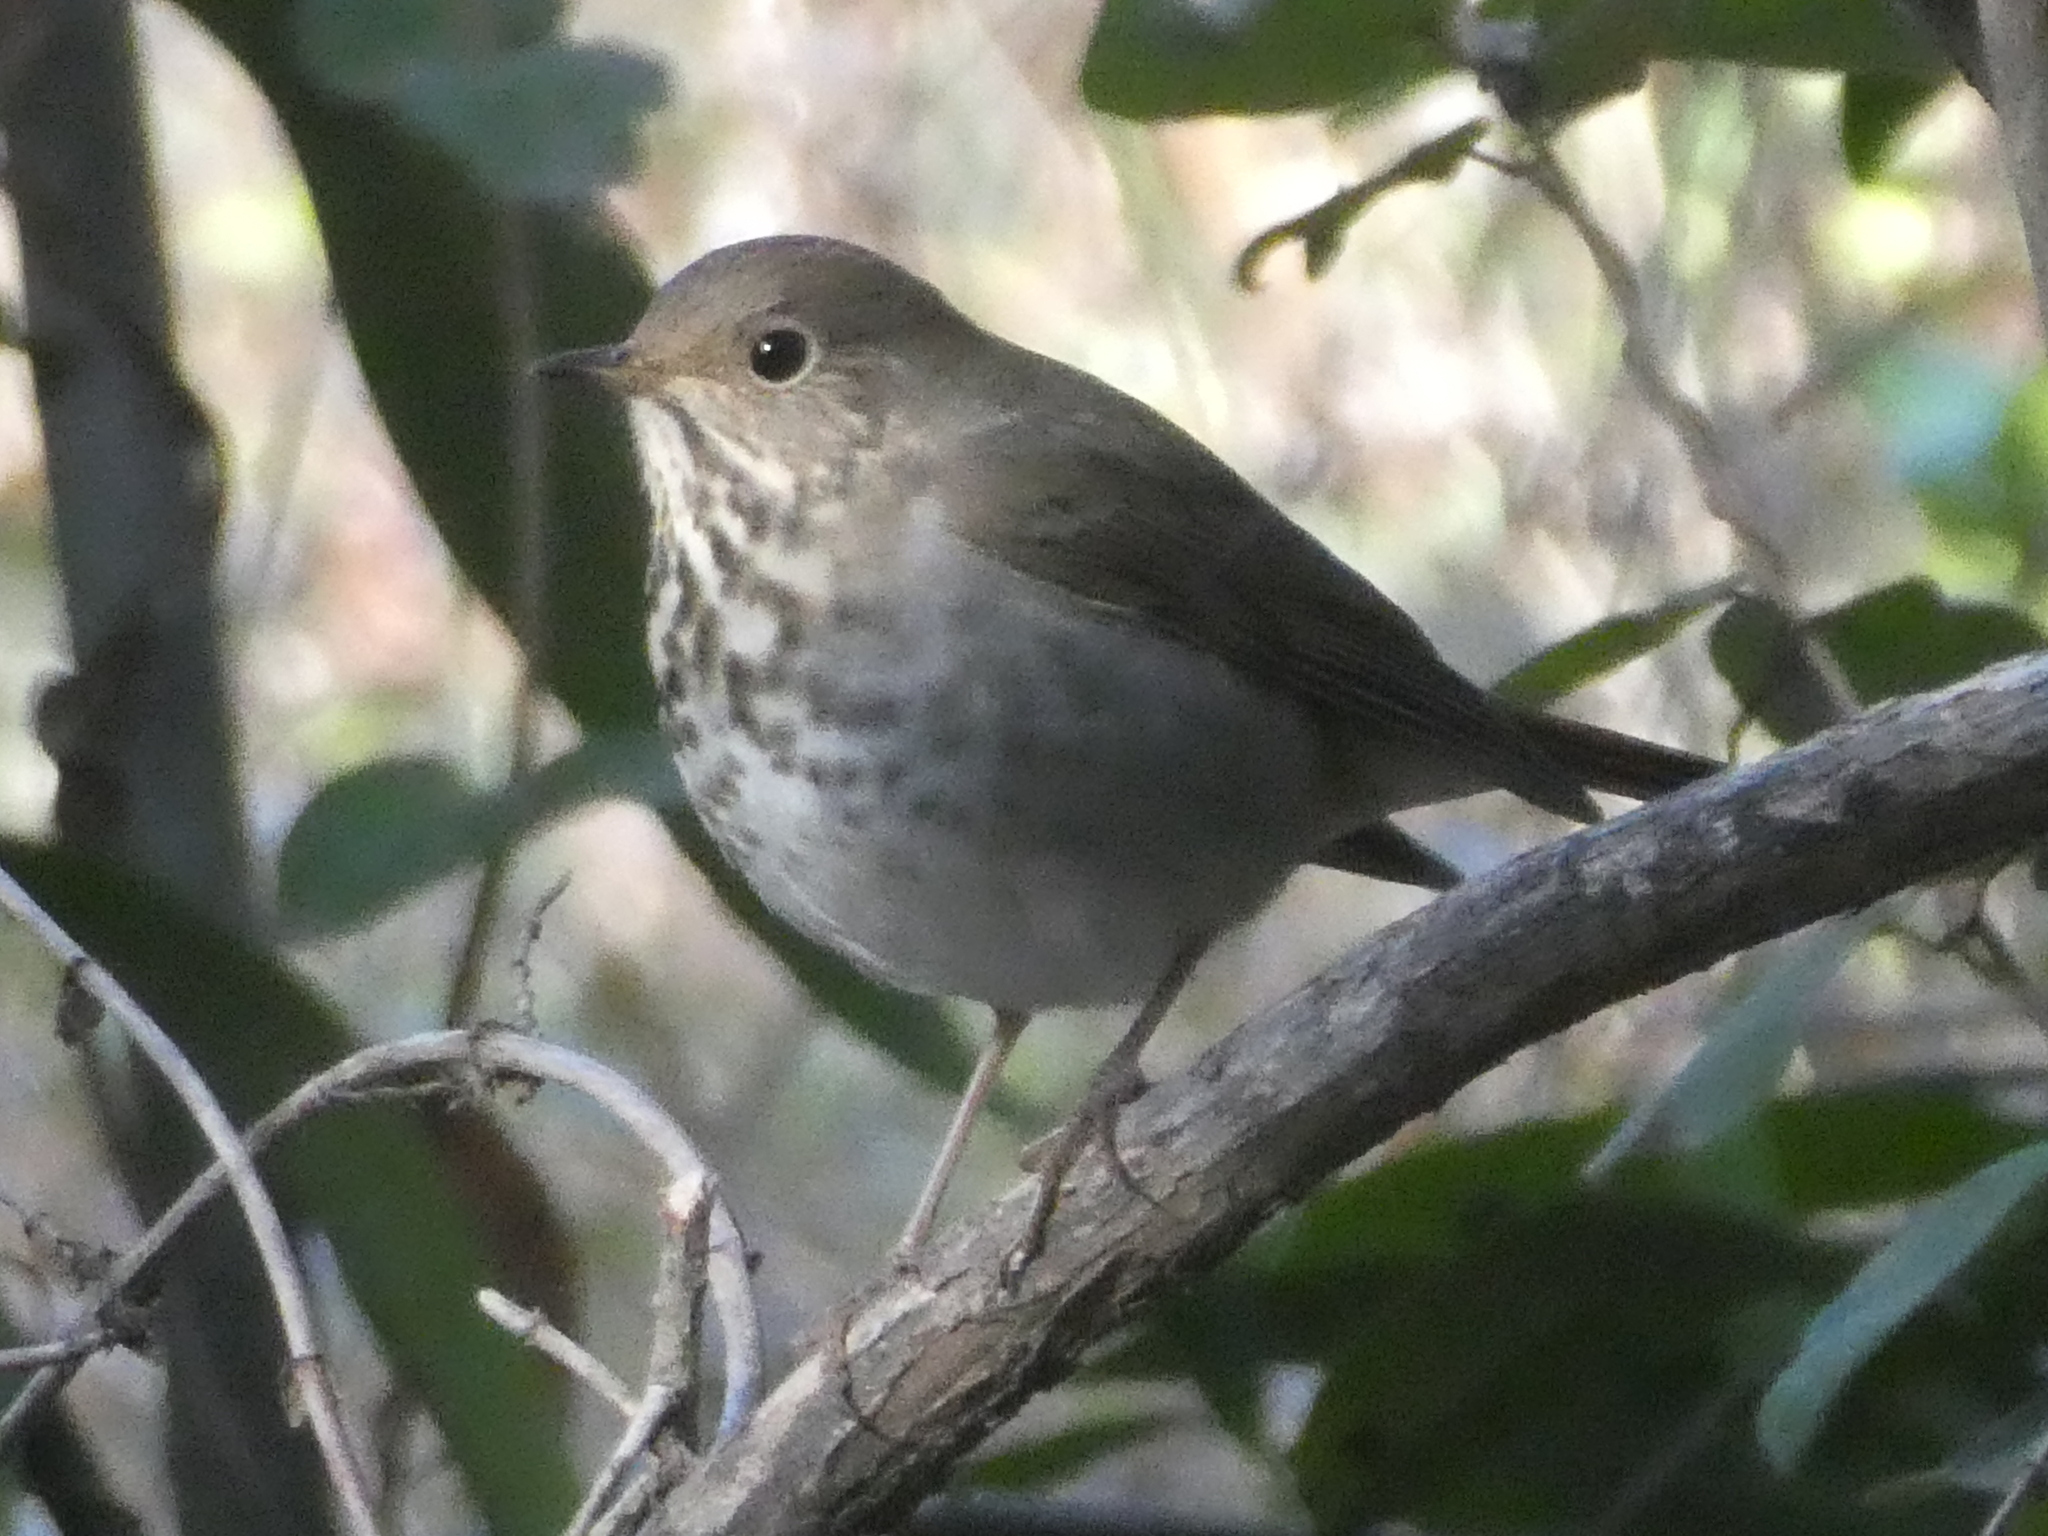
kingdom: Animalia
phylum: Chordata
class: Aves
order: Passeriformes
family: Turdidae
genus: Catharus
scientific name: Catharus guttatus
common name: Hermit thrush
